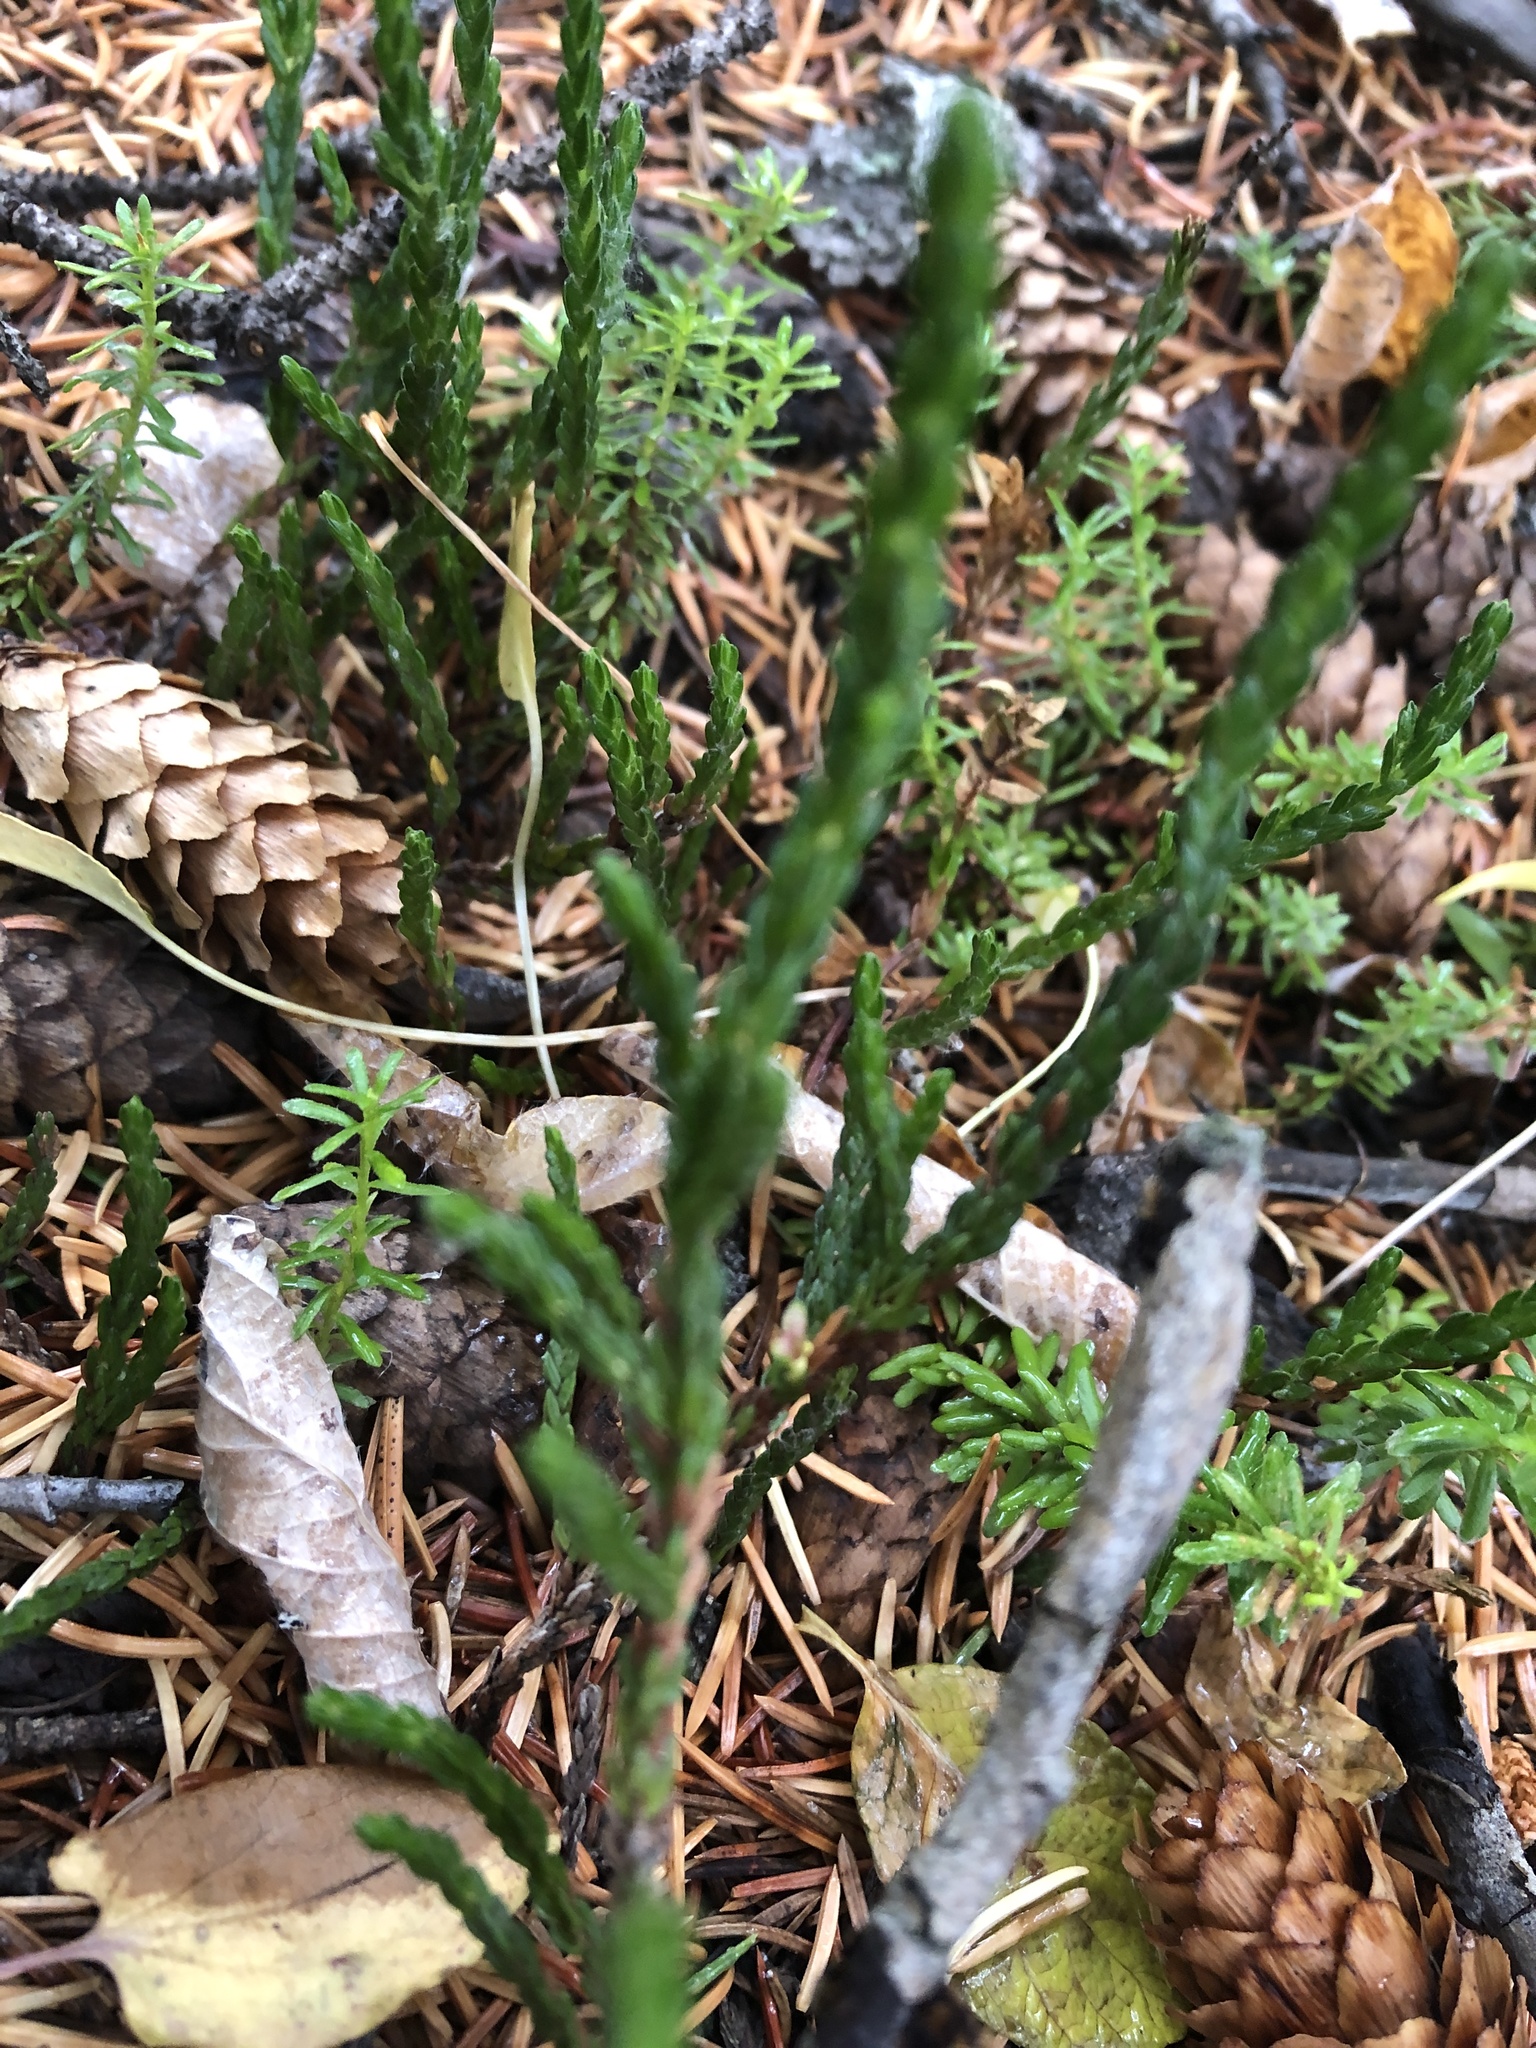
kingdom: Plantae
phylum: Tracheophyta
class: Magnoliopsida
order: Ericales
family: Ericaceae
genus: Cassiope
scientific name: Cassiope tetragona
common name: Arctic bell heather
